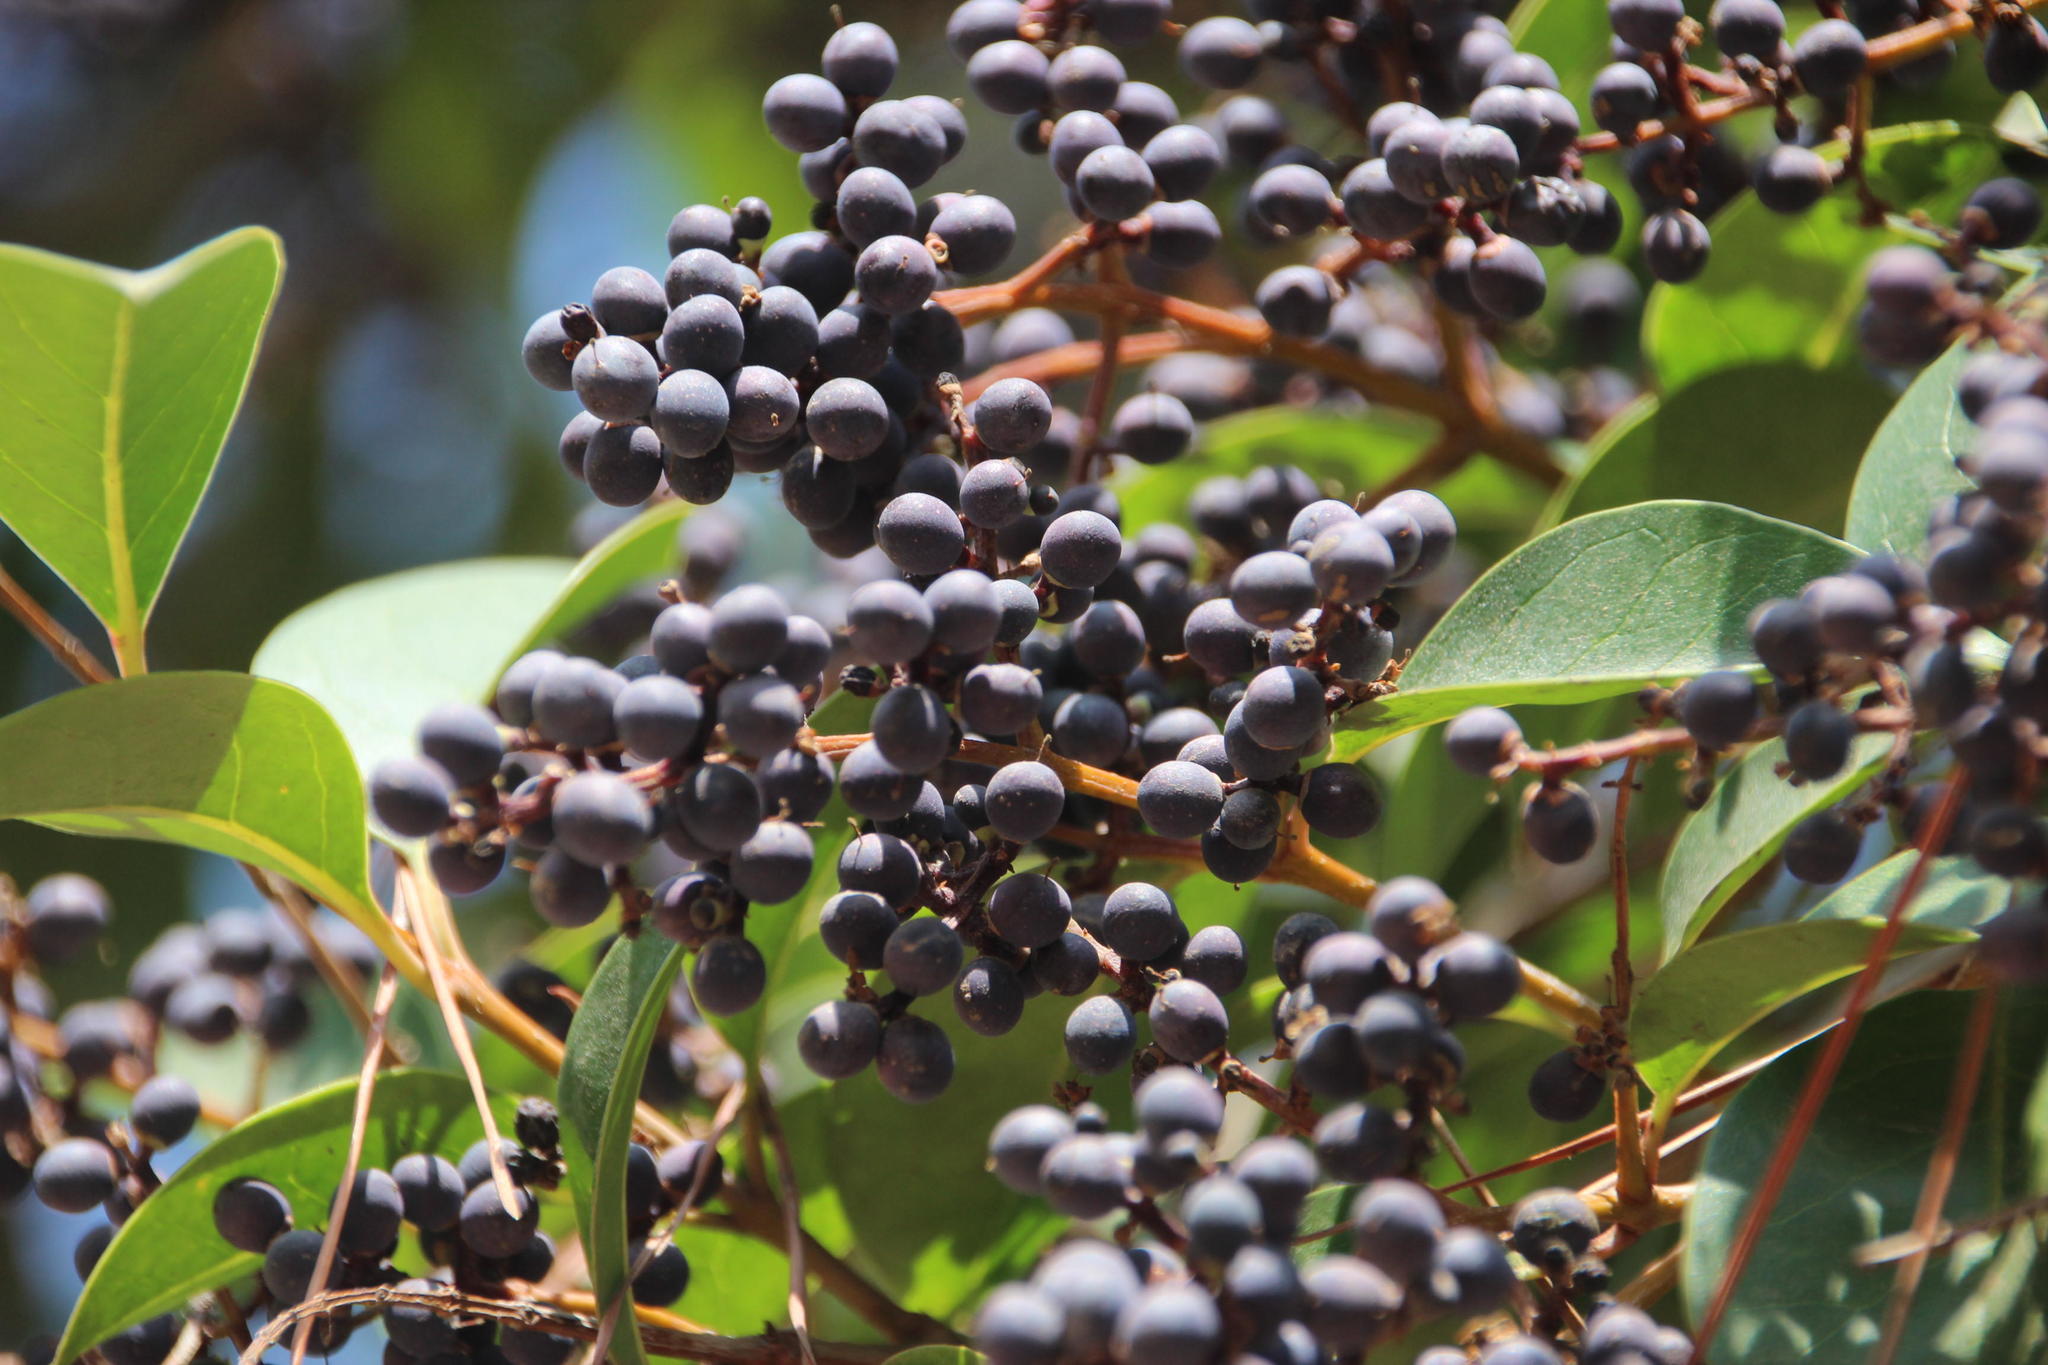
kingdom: Plantae
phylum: Tracheophyta
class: Magnoliopsida
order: Lamiales
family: Oleaceae
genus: Ligustrum
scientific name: Ligustrum lucidum
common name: Glossy privet
